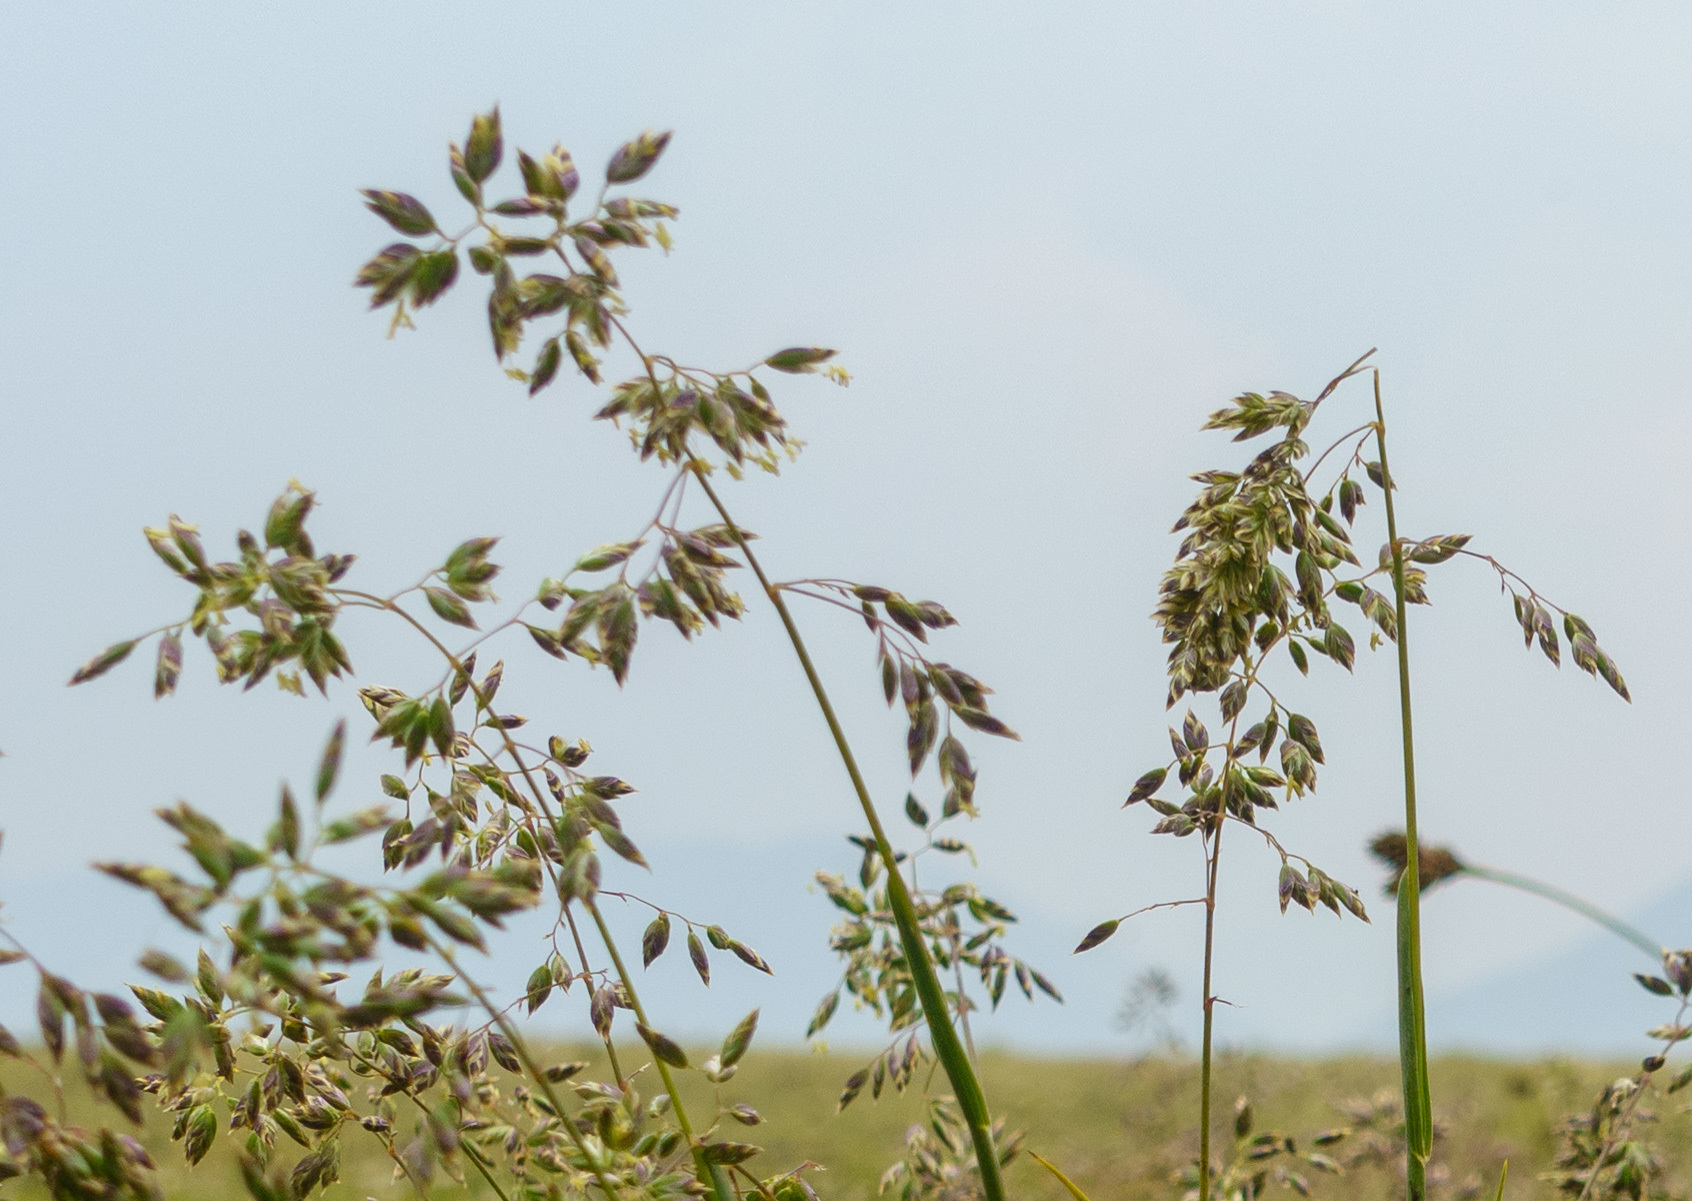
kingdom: Plantae
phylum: Tracheophyta
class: Liliopsida
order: Poales
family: Poaceae
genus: Poa
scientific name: Poa alpina
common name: Alpine bluegrass
